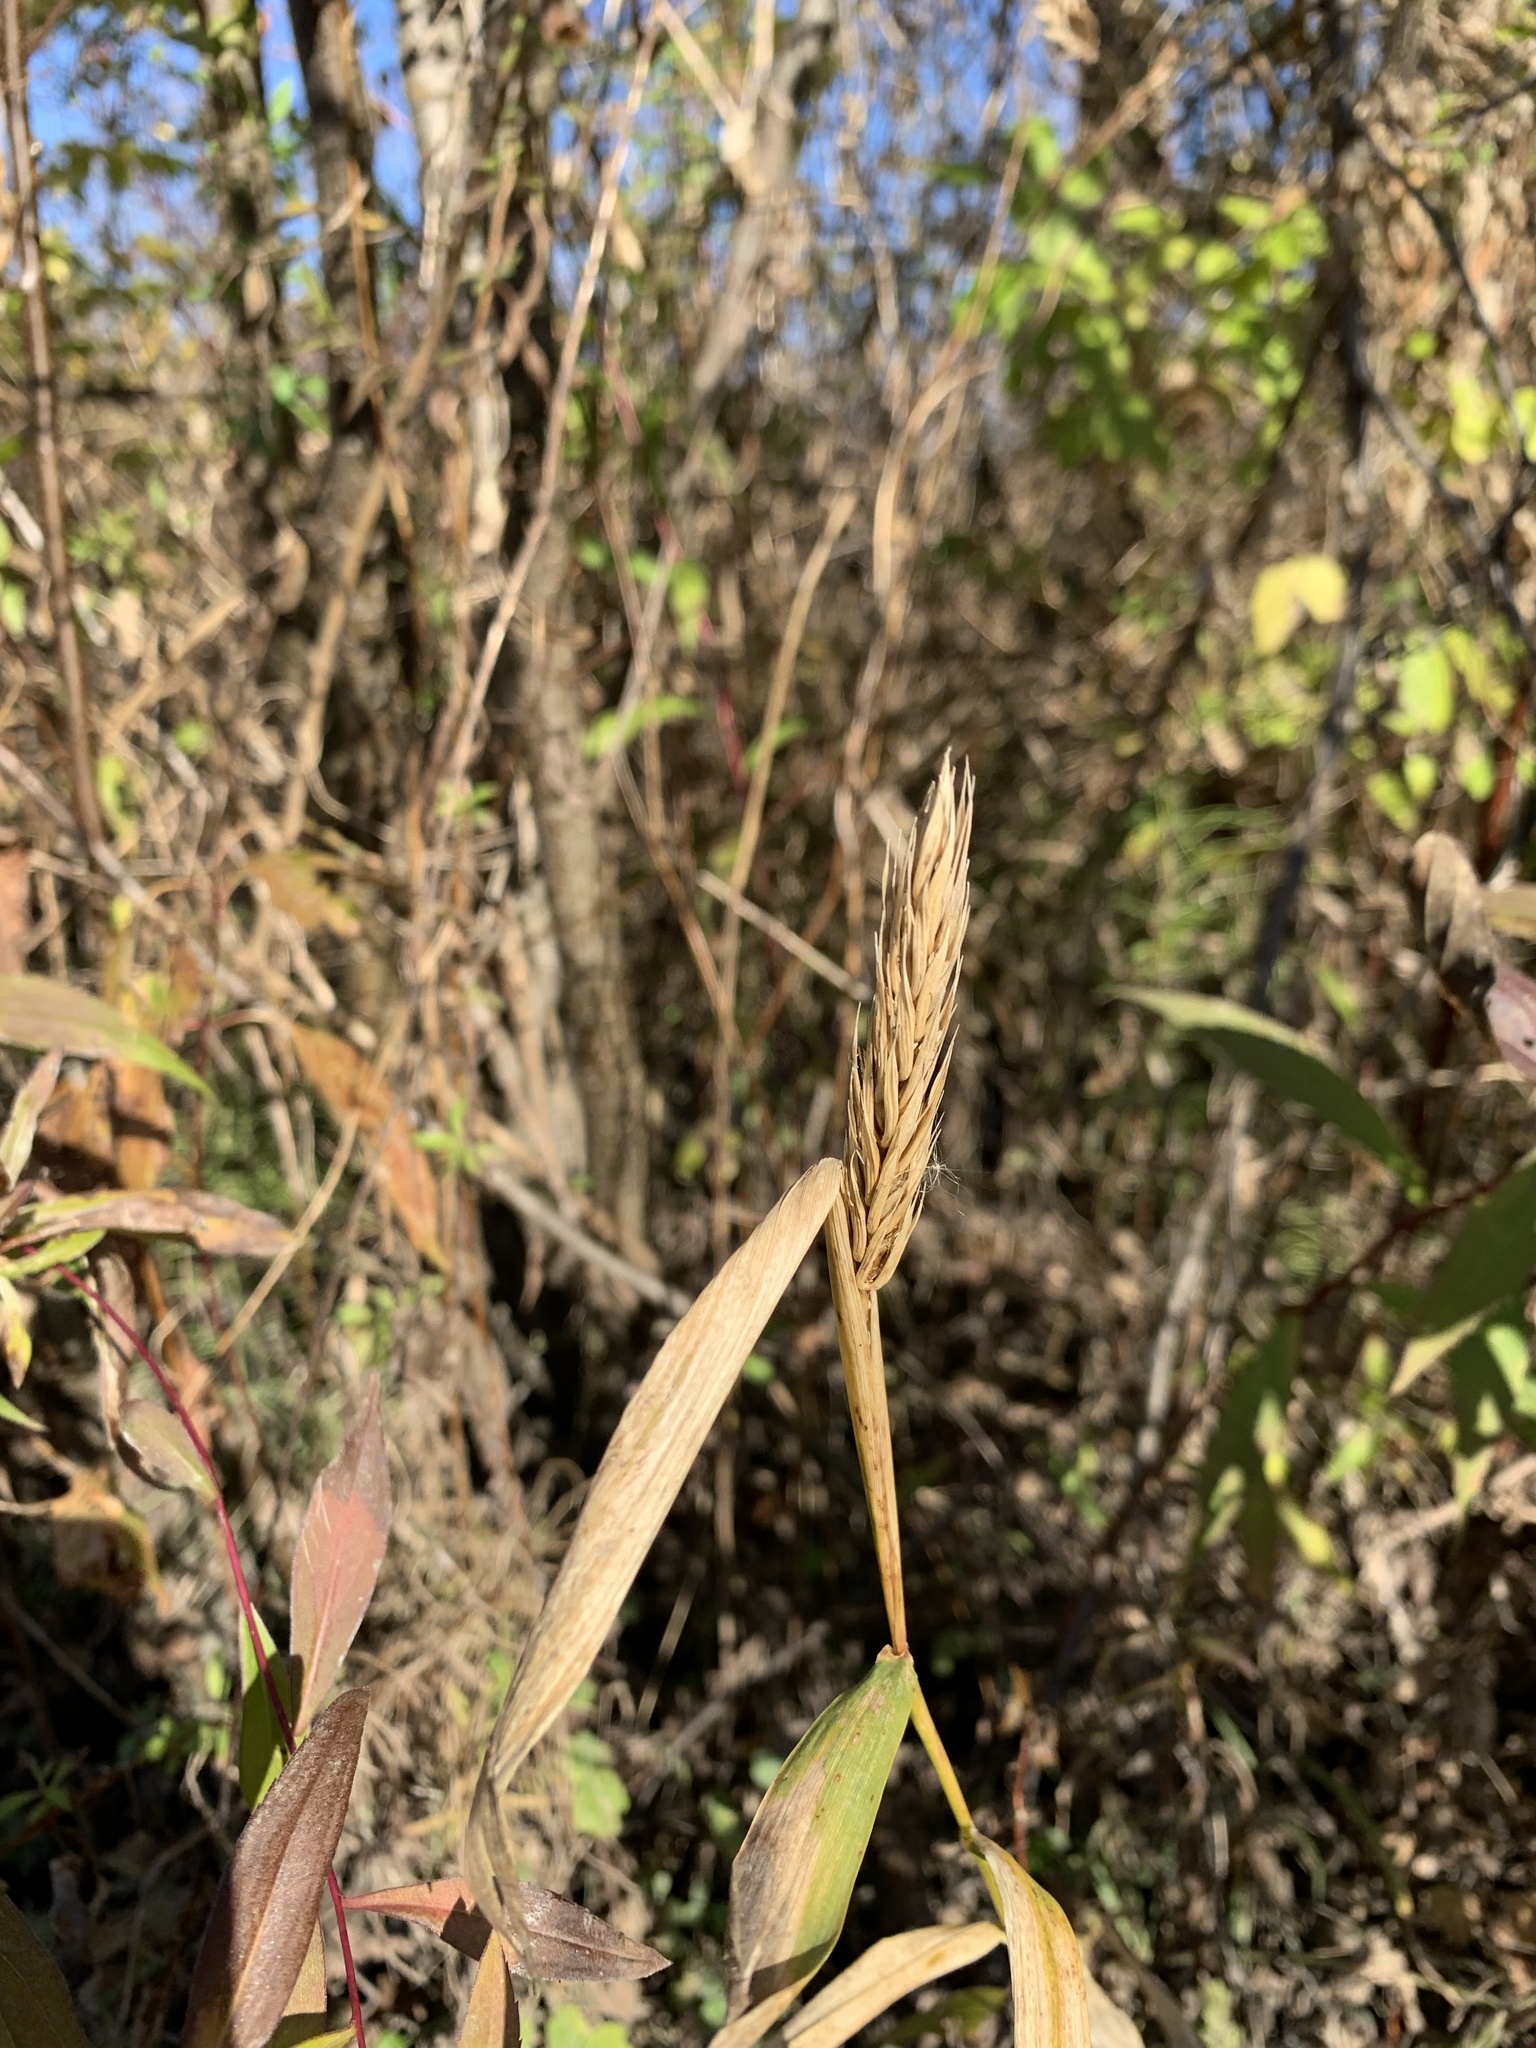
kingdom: Plantae
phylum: Tracheophyta
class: Liliopsida
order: Poales
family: Poaceae
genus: Elymus
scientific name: Elymus virginicus
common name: Common eastern wildrye
